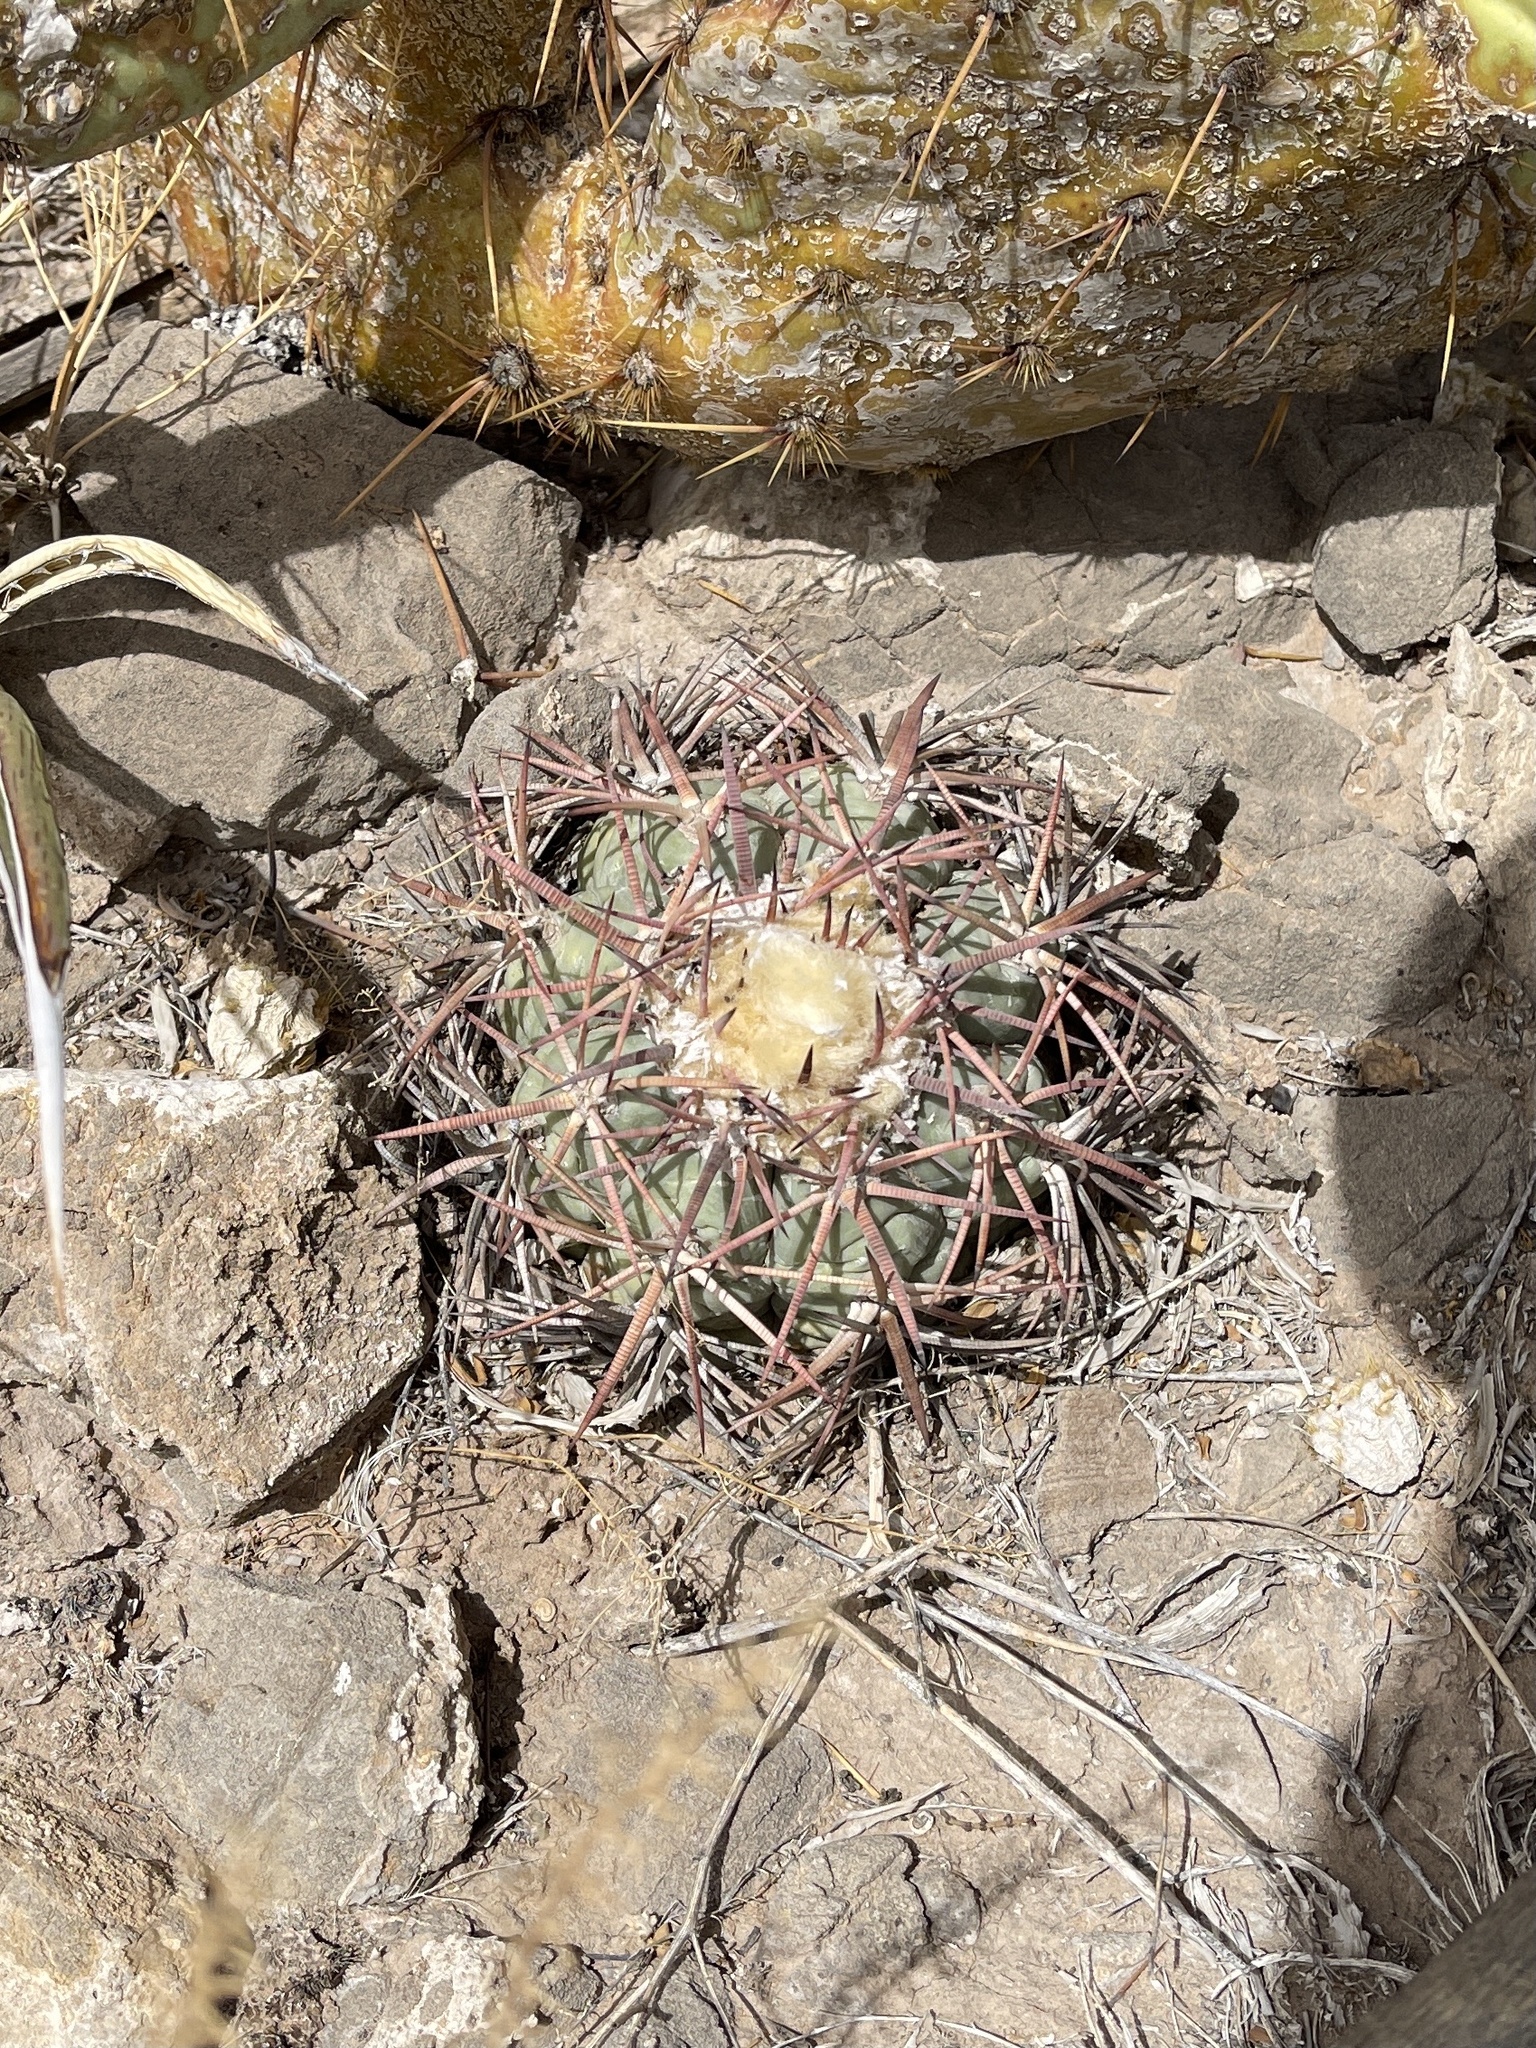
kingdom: Plantae
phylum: Tracheophyta
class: Magnoliopsida
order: Caryophyllales
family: Cactaceae
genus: Echinocactus
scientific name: Echinocactus horizonthalonius
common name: Devilshead
